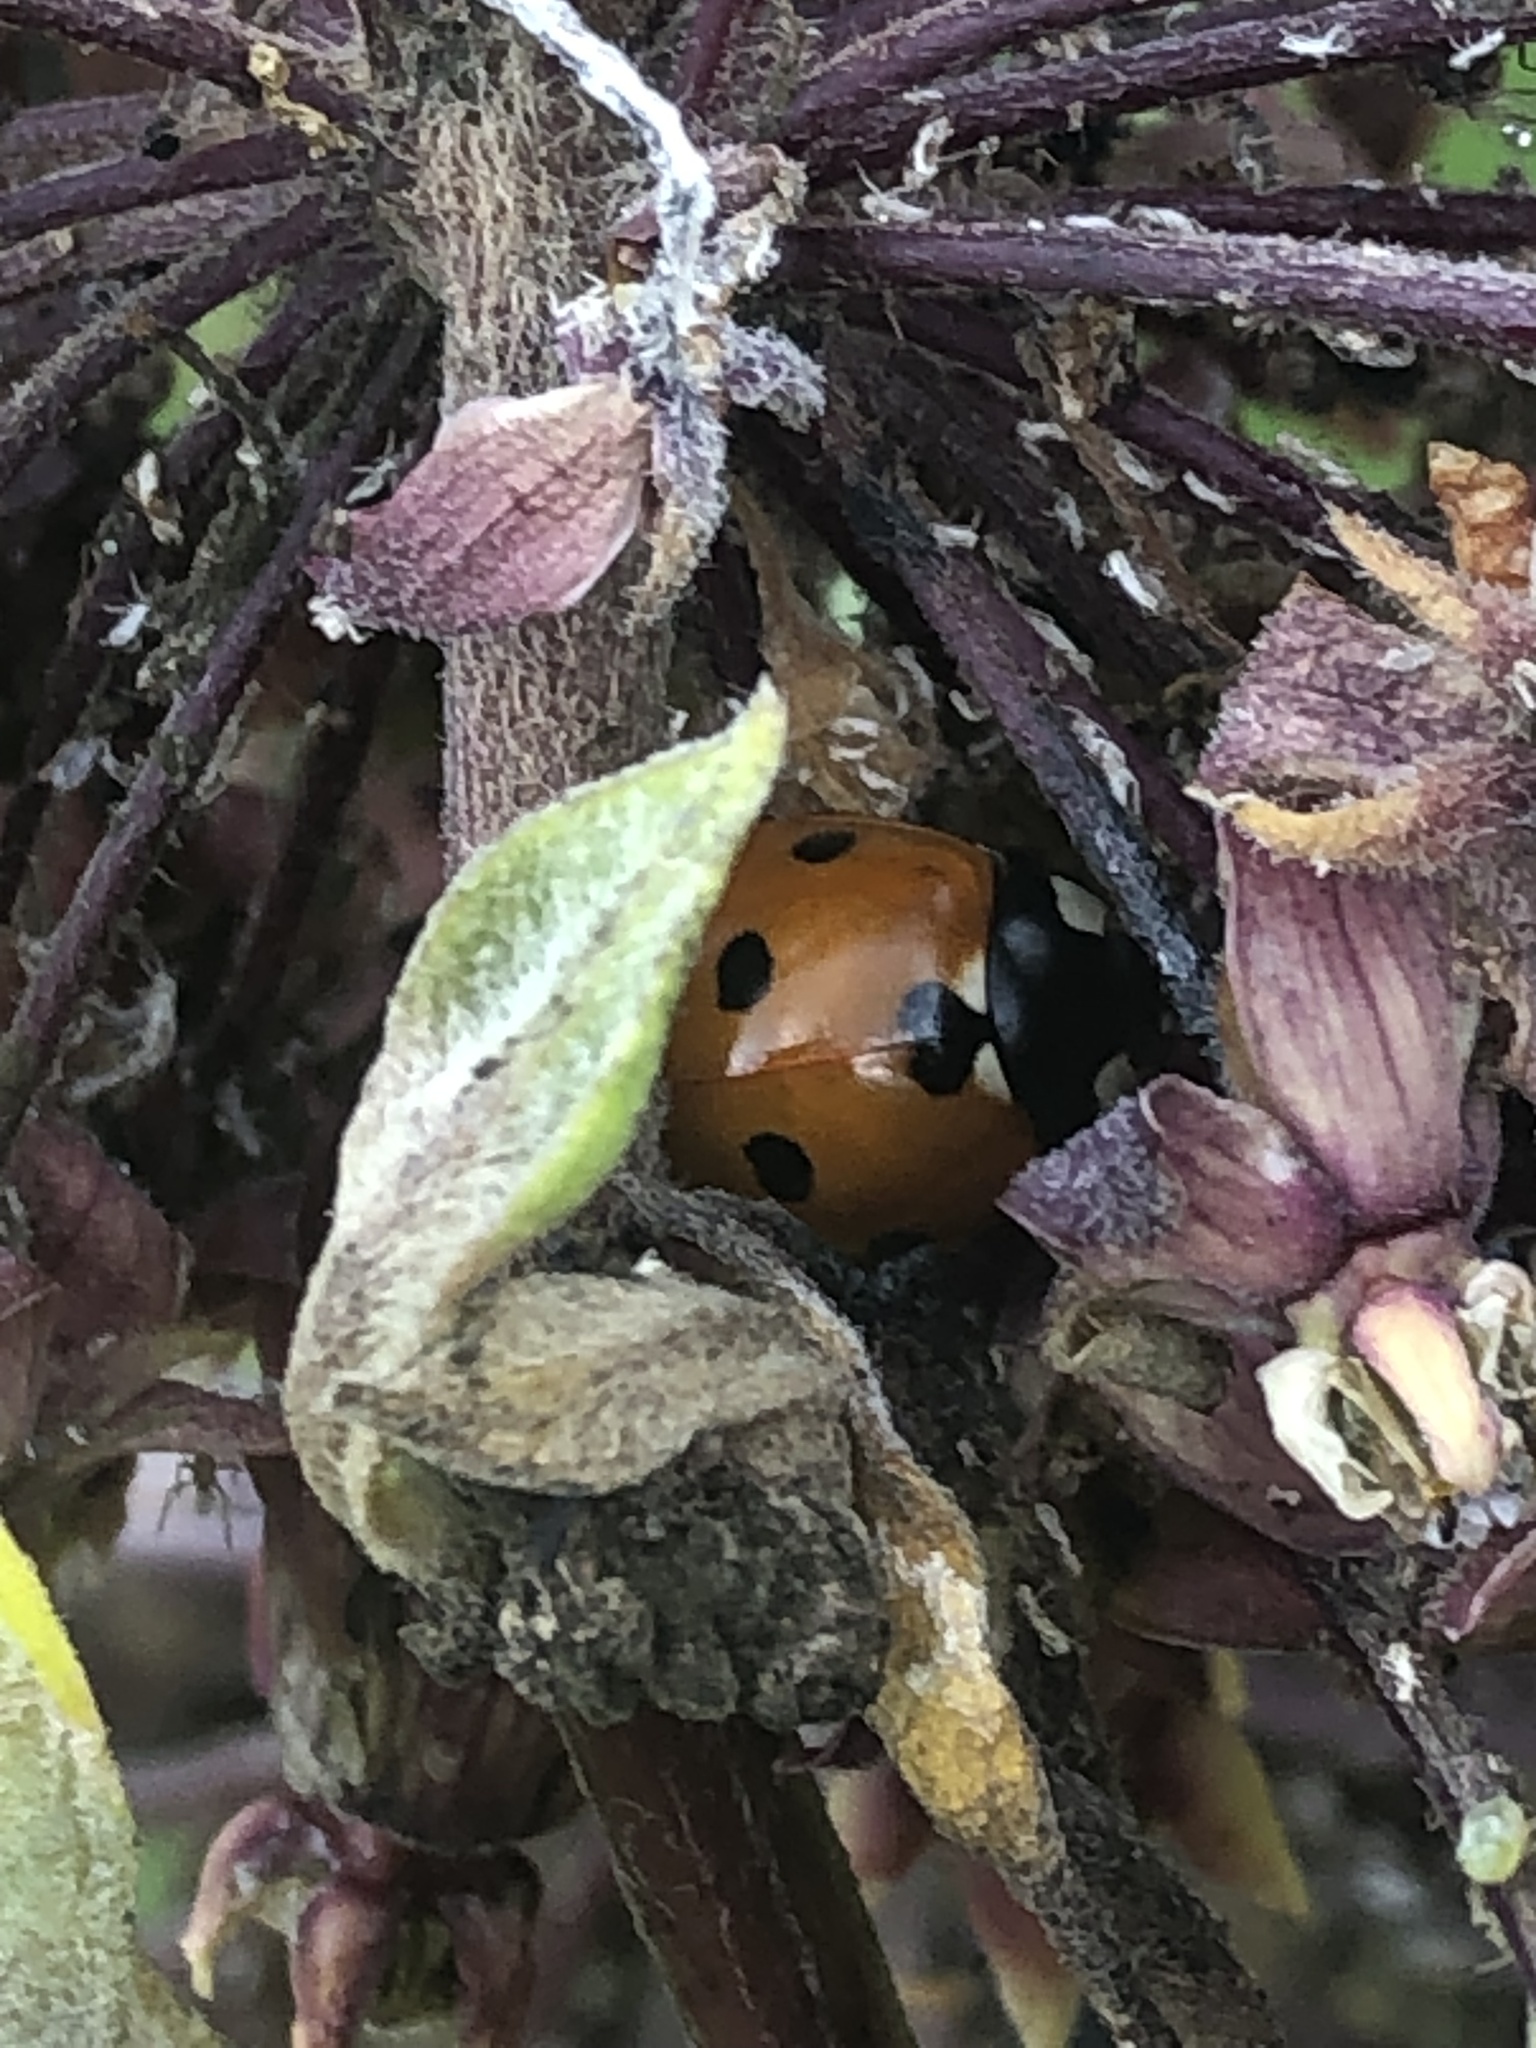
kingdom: Animalia
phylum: Arthropoda
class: Insecta
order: Coleoptera
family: Coccinellidae
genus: Coccinella
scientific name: Coccinella septempunctata
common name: Sevenspotted lady beetle
